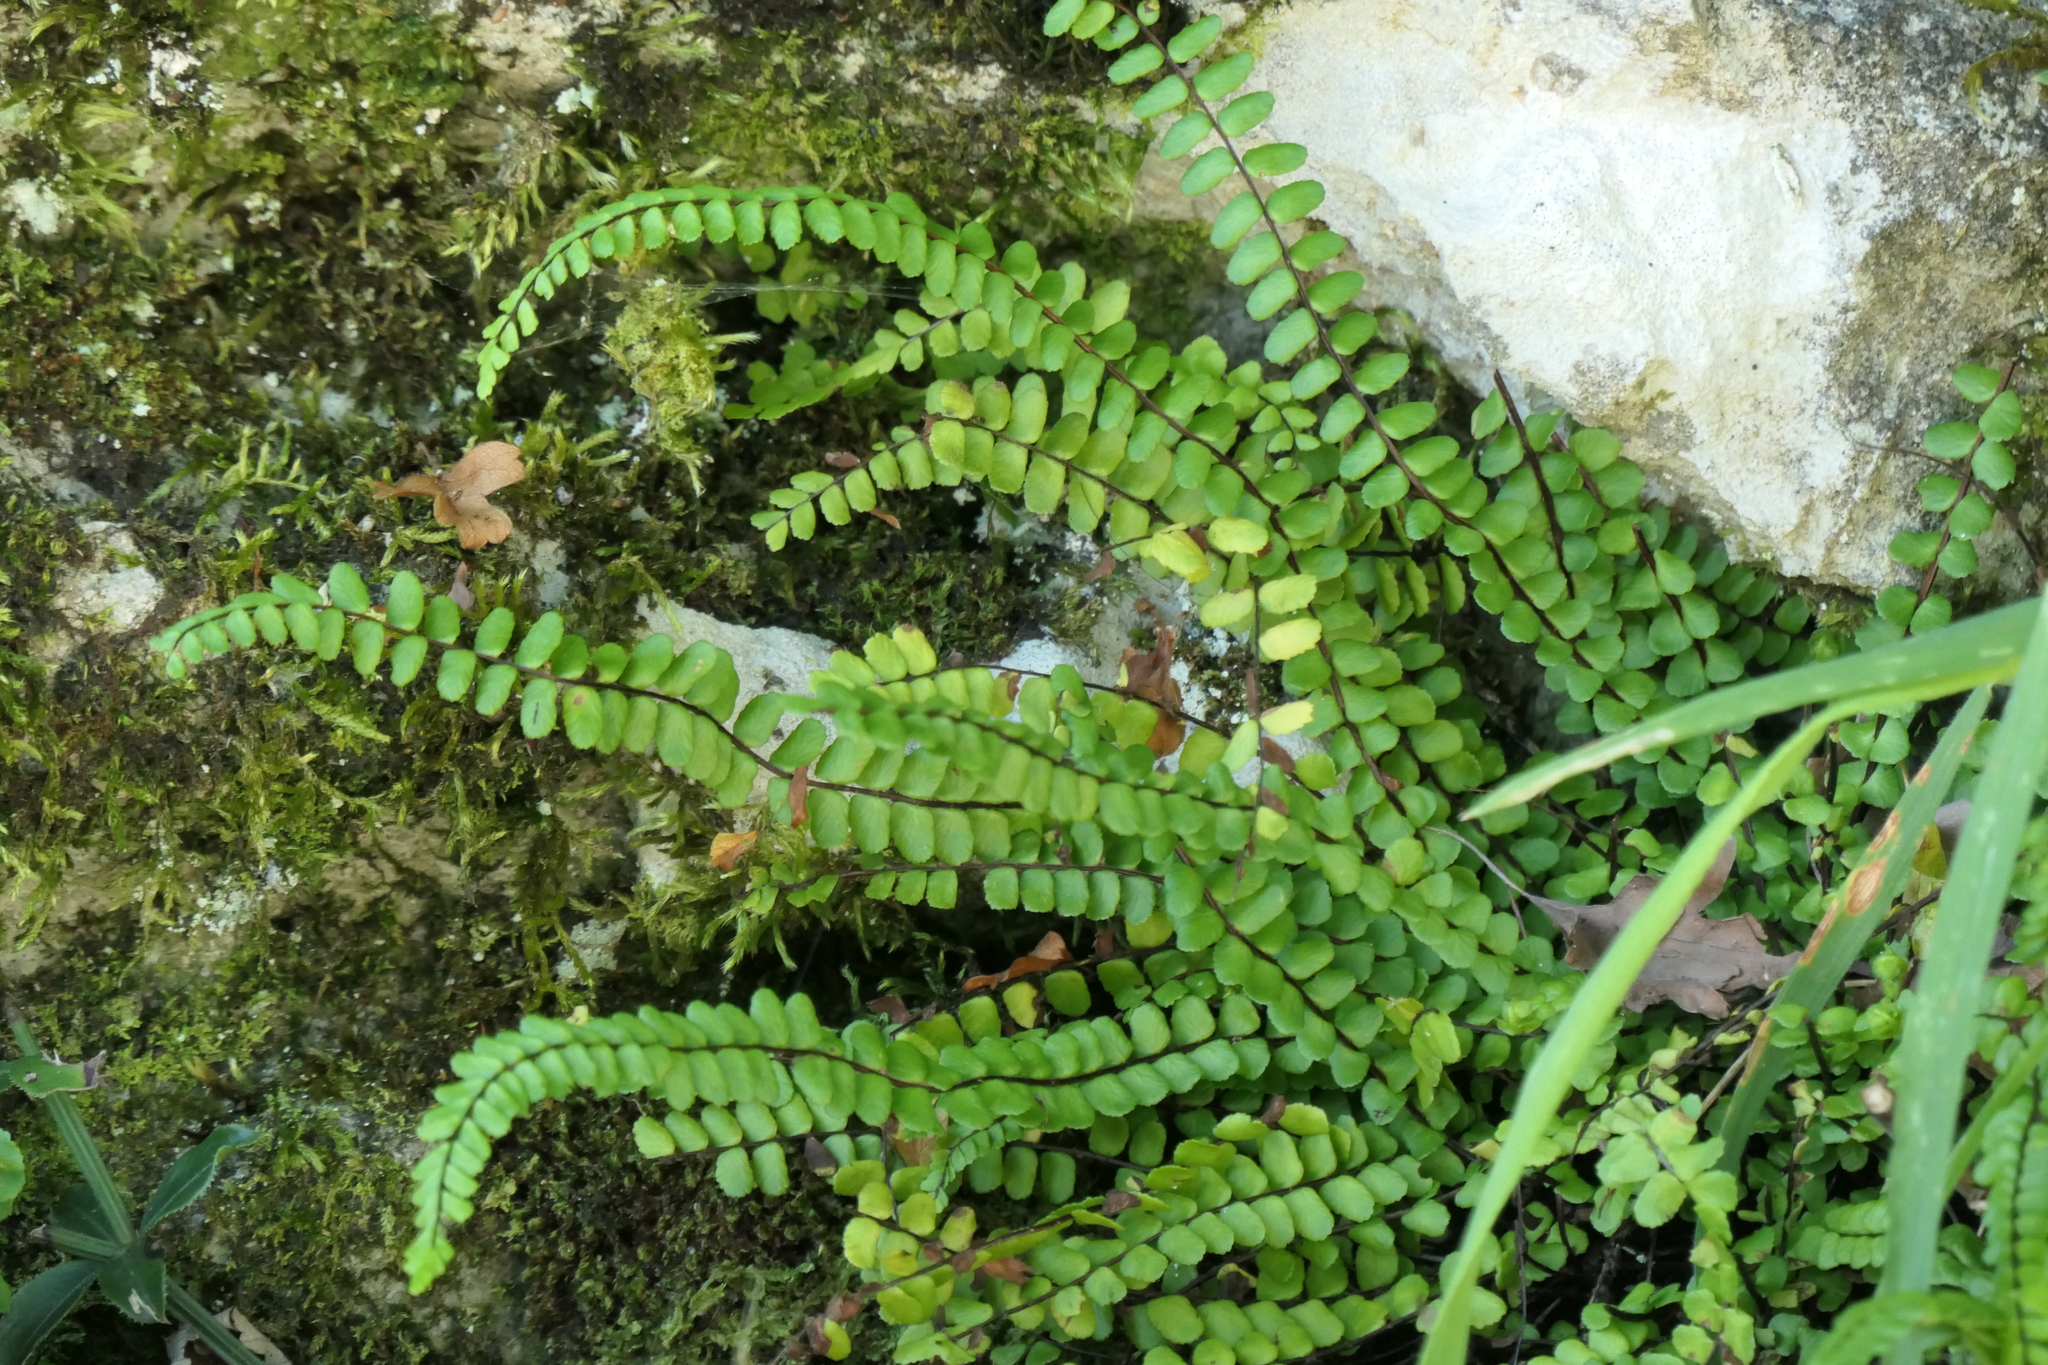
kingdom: Plantae
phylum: Tracheophyta
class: Polypodiopsida
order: Polypodiales
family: Aspleniaceae
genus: Asplenium
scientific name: Asplenium trichomanes
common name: Maidenhair spleenwort
